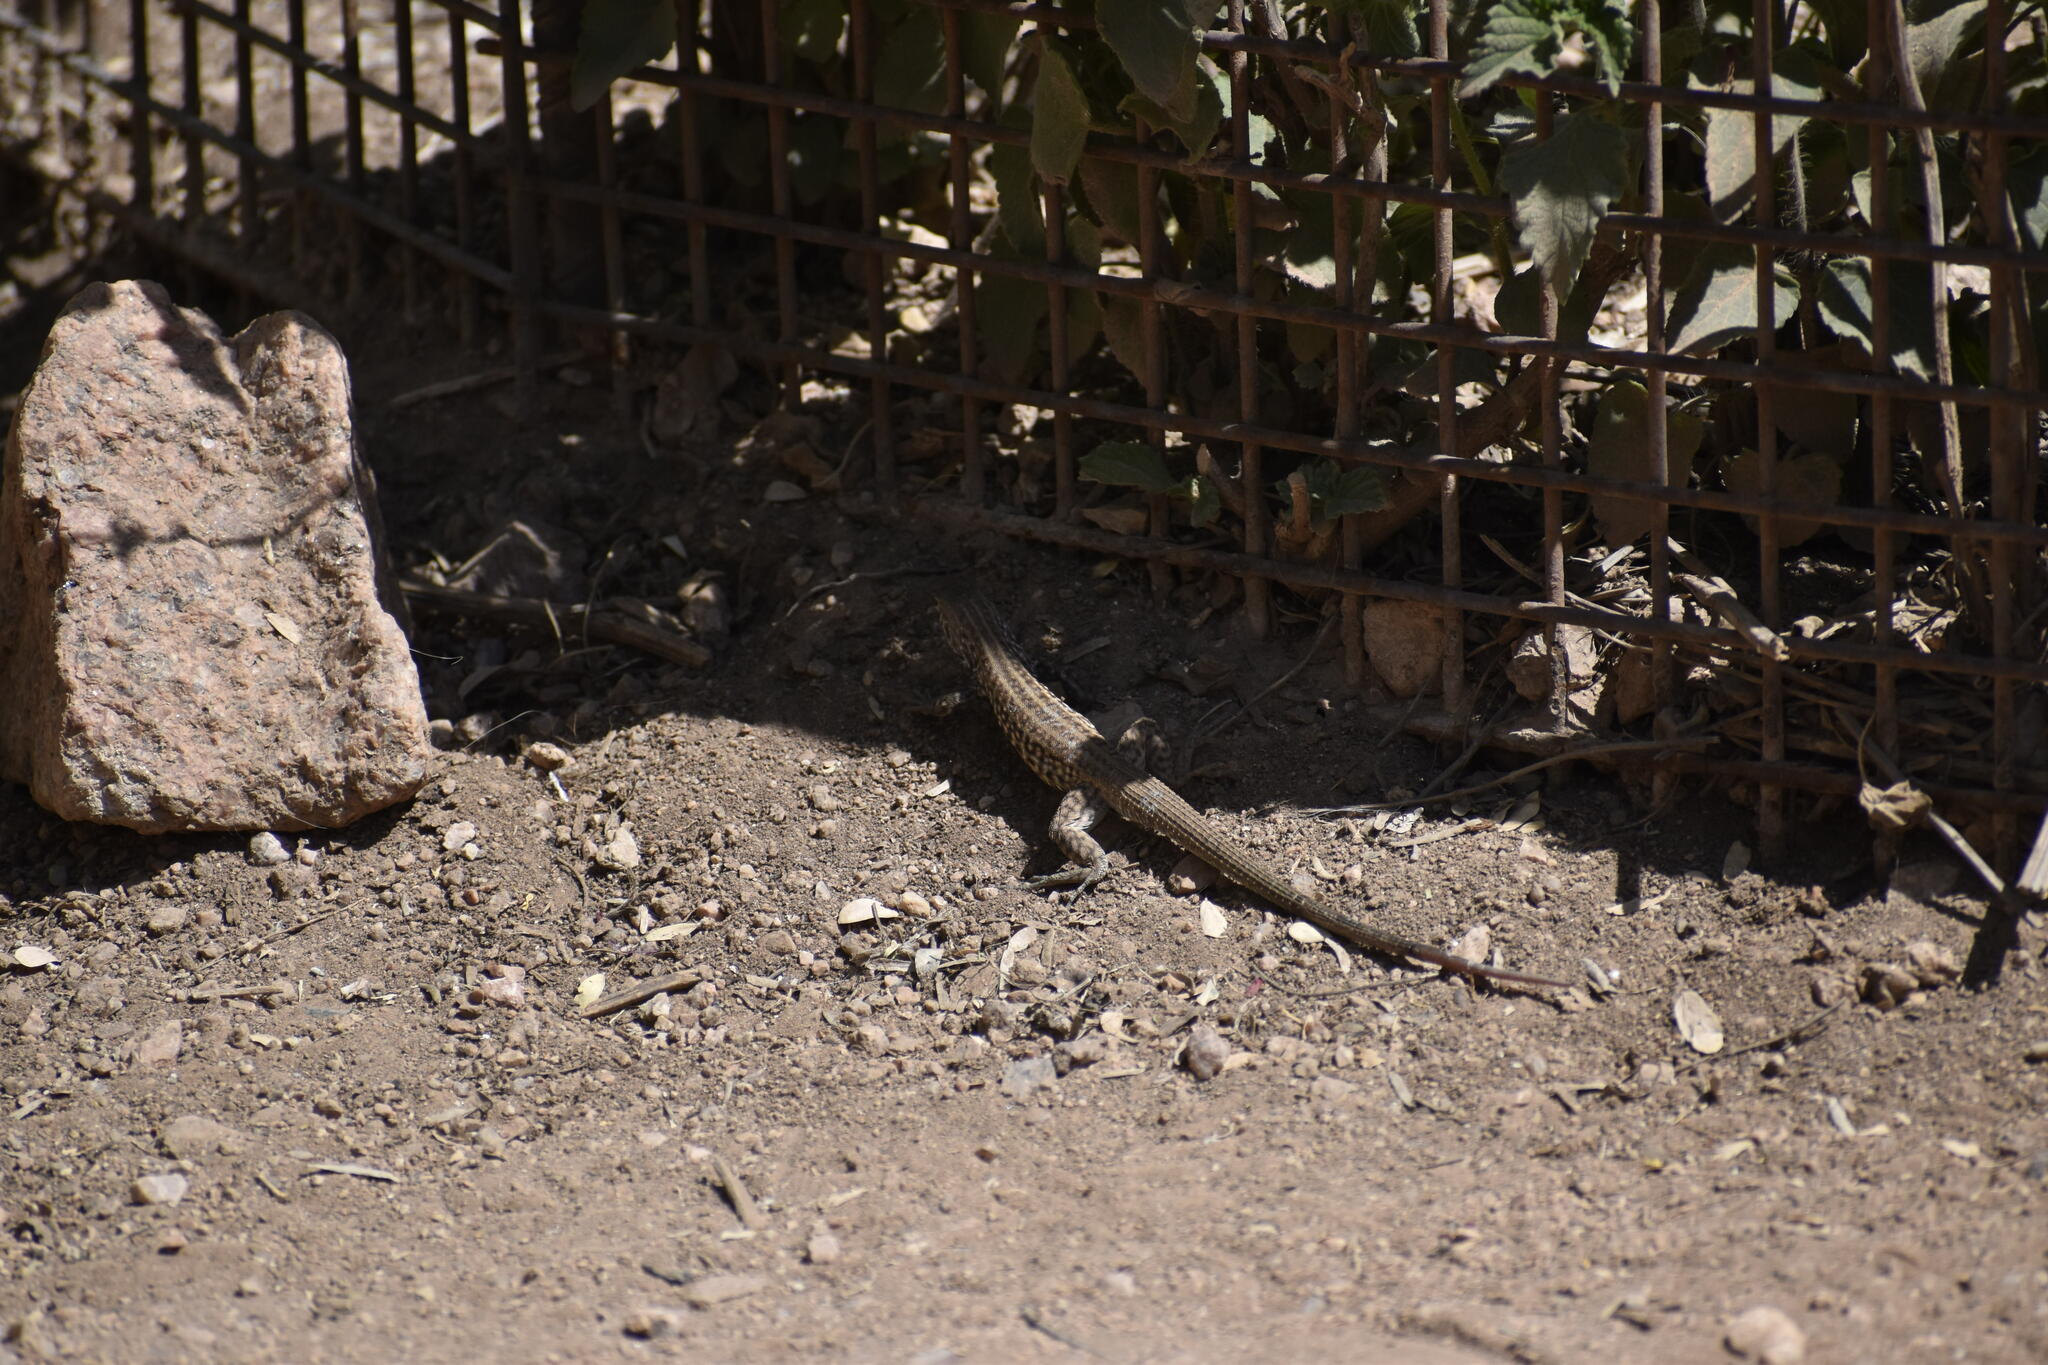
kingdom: Animalia
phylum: Chordata
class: Squamata
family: Teiidae
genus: Aspidoscelis
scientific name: Aspidoscelis tigris
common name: Tiger whiptail
